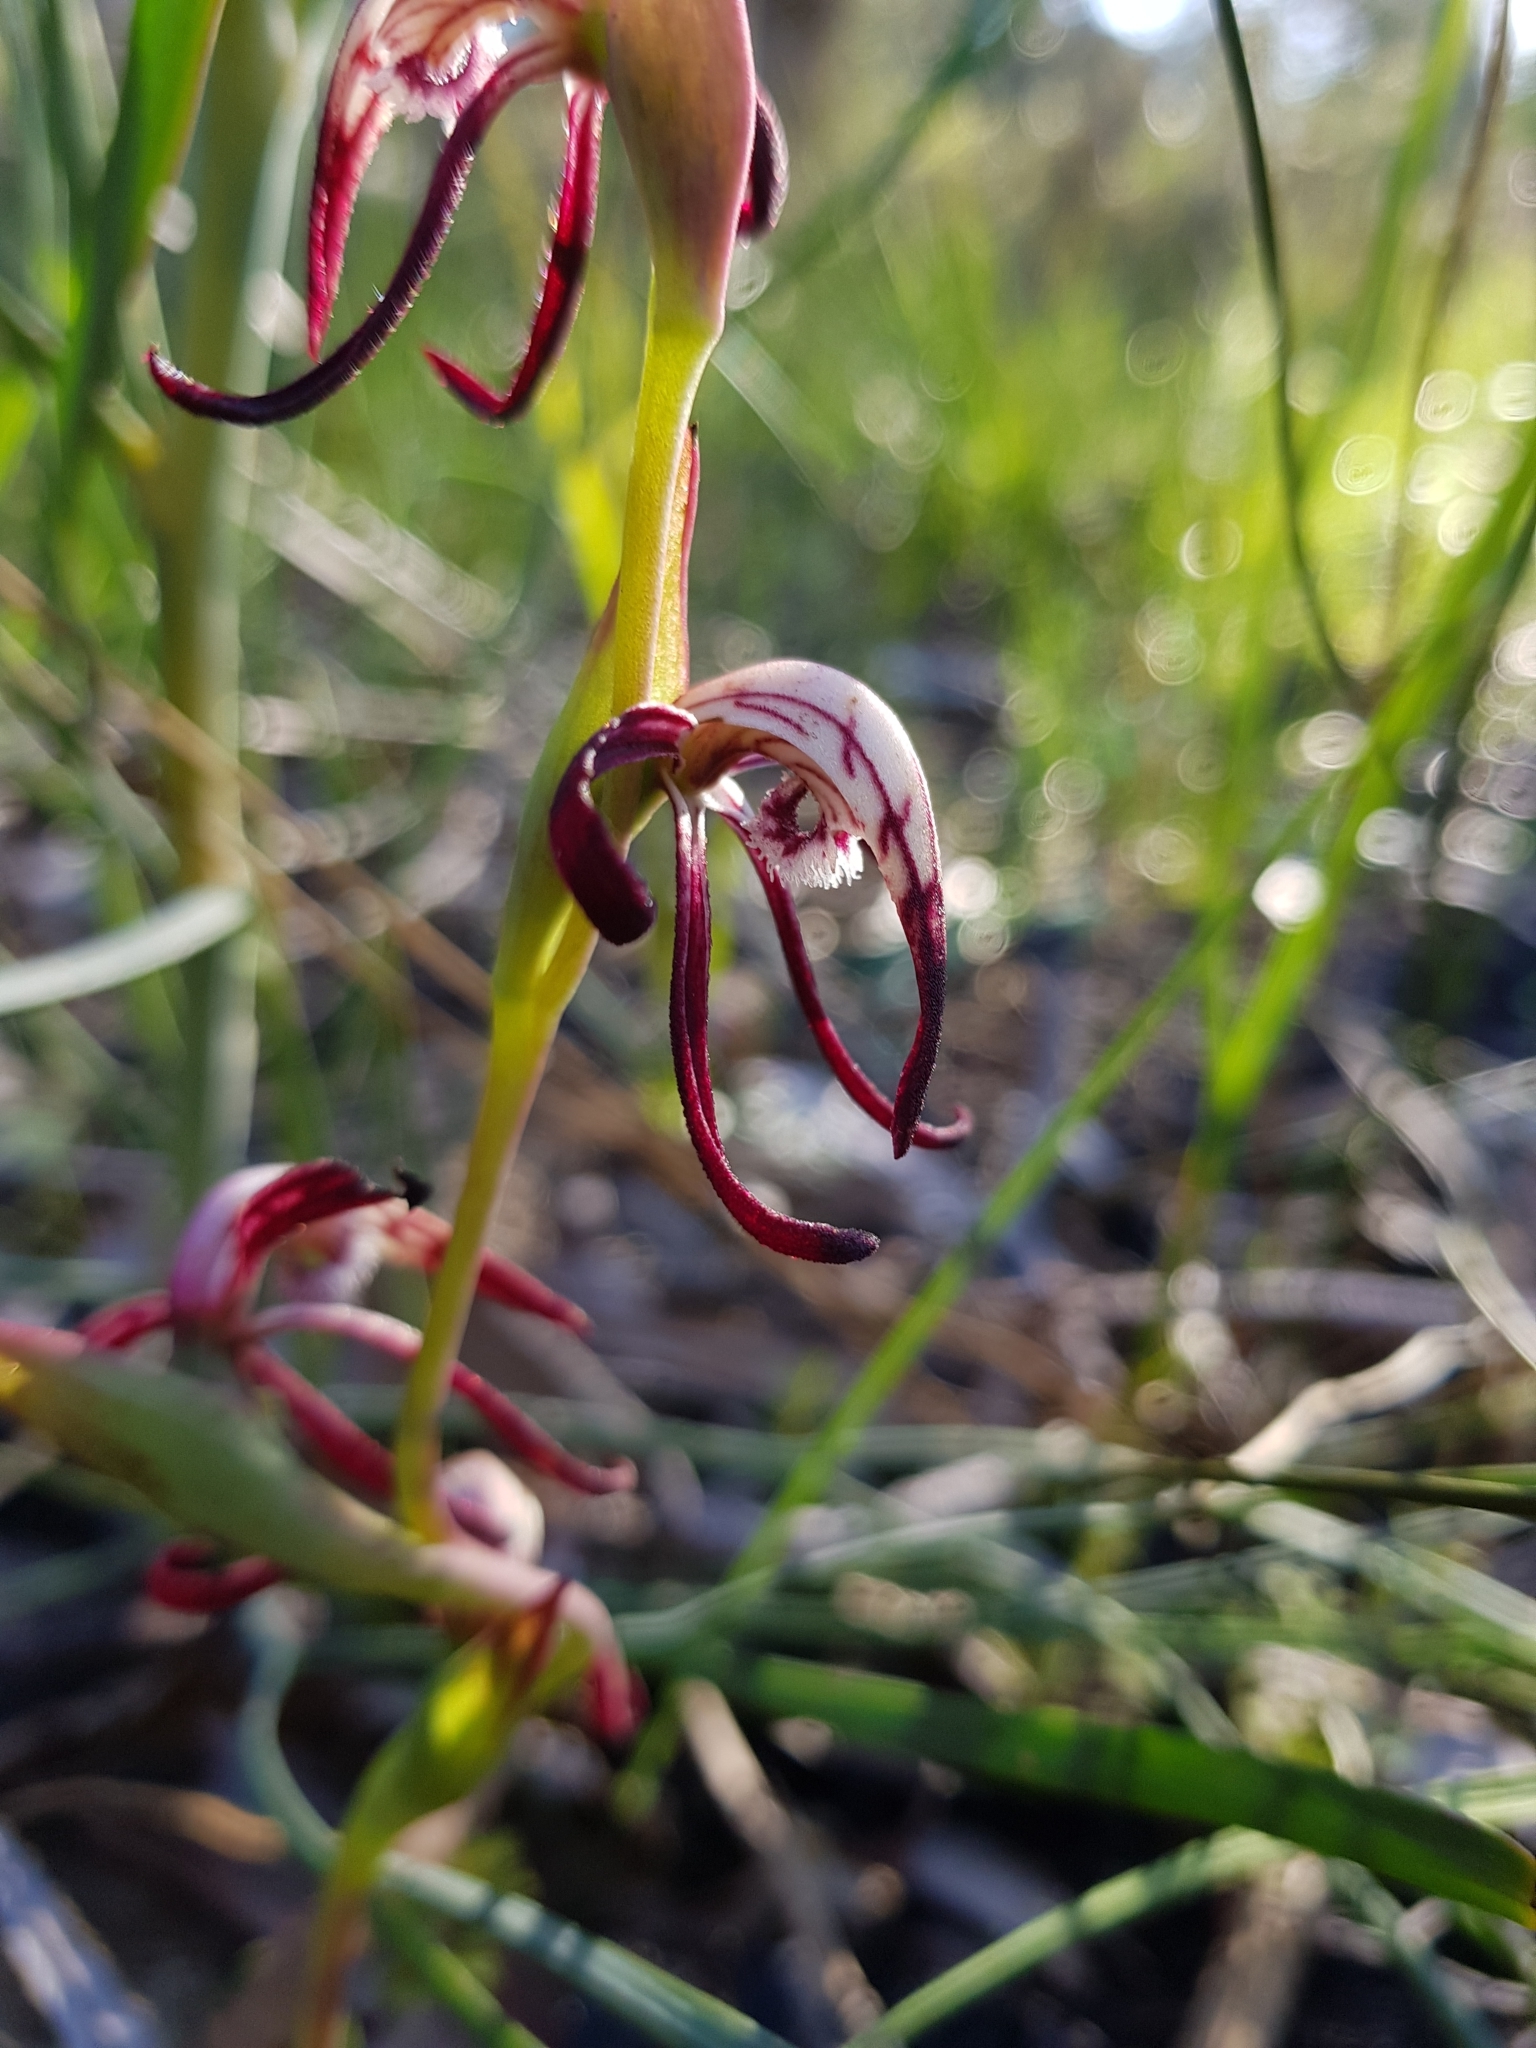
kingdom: Plantae
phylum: Tracheophyta
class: Liliopsida
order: Asparagales
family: Orchidaceae
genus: Pyrorchis
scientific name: Pyrorchis nigricans
